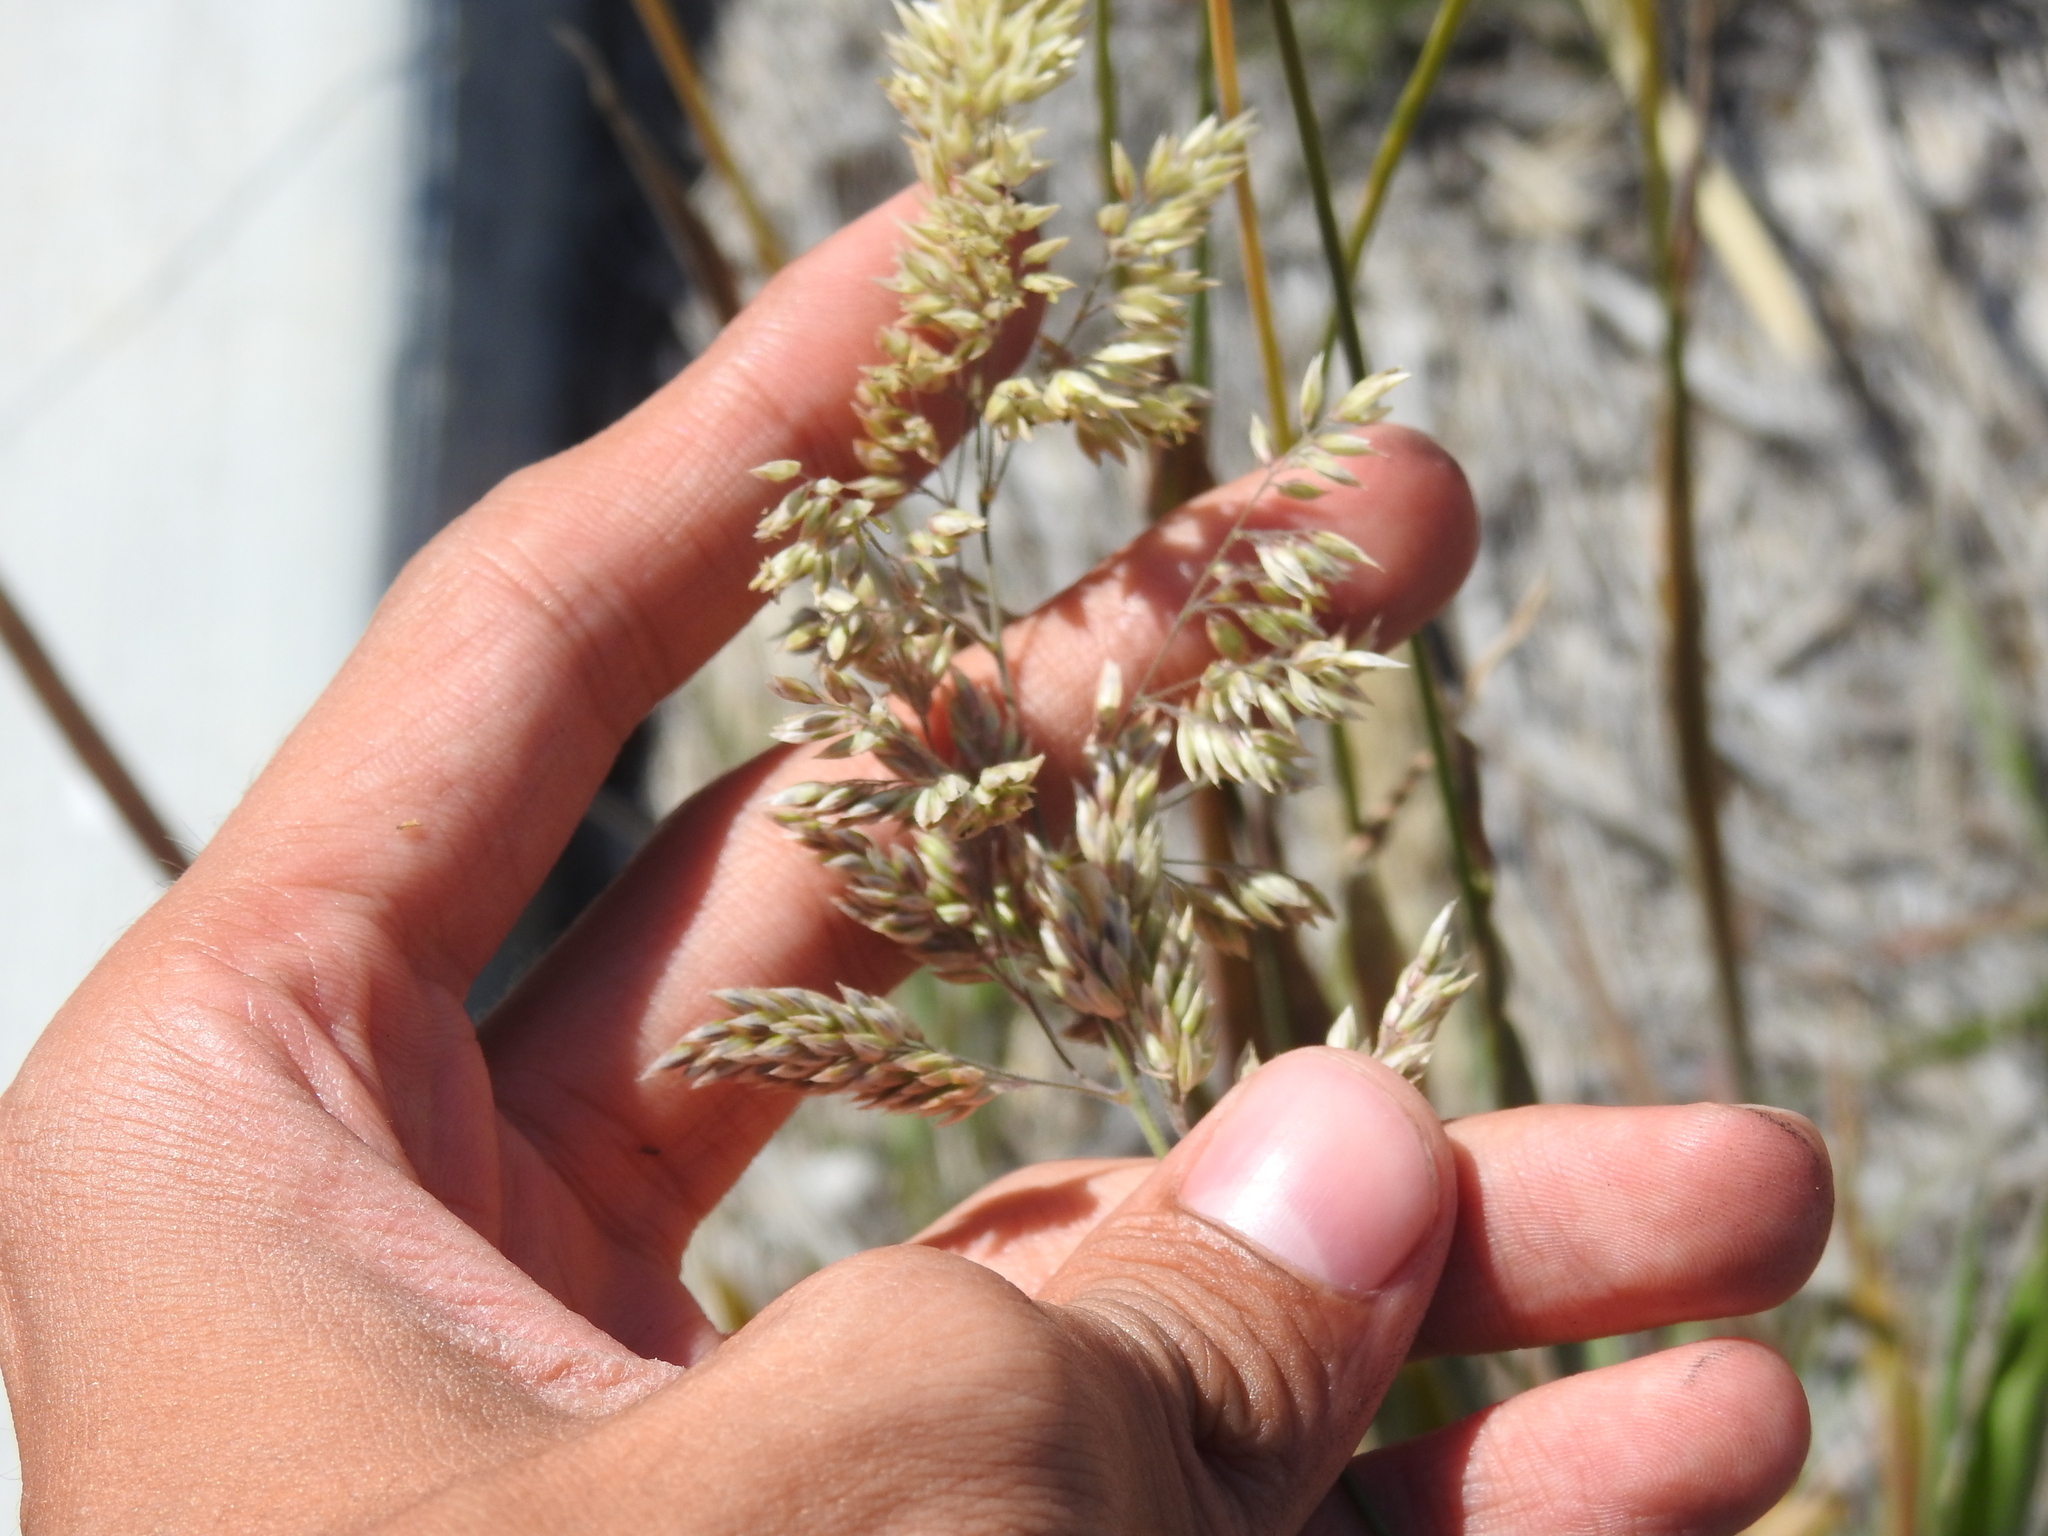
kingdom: Plantae
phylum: Tracheophyta
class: Liliopsida
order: Poales
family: Poaceae
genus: Holcus
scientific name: Holcus lanatus
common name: Yorkshire-fog
